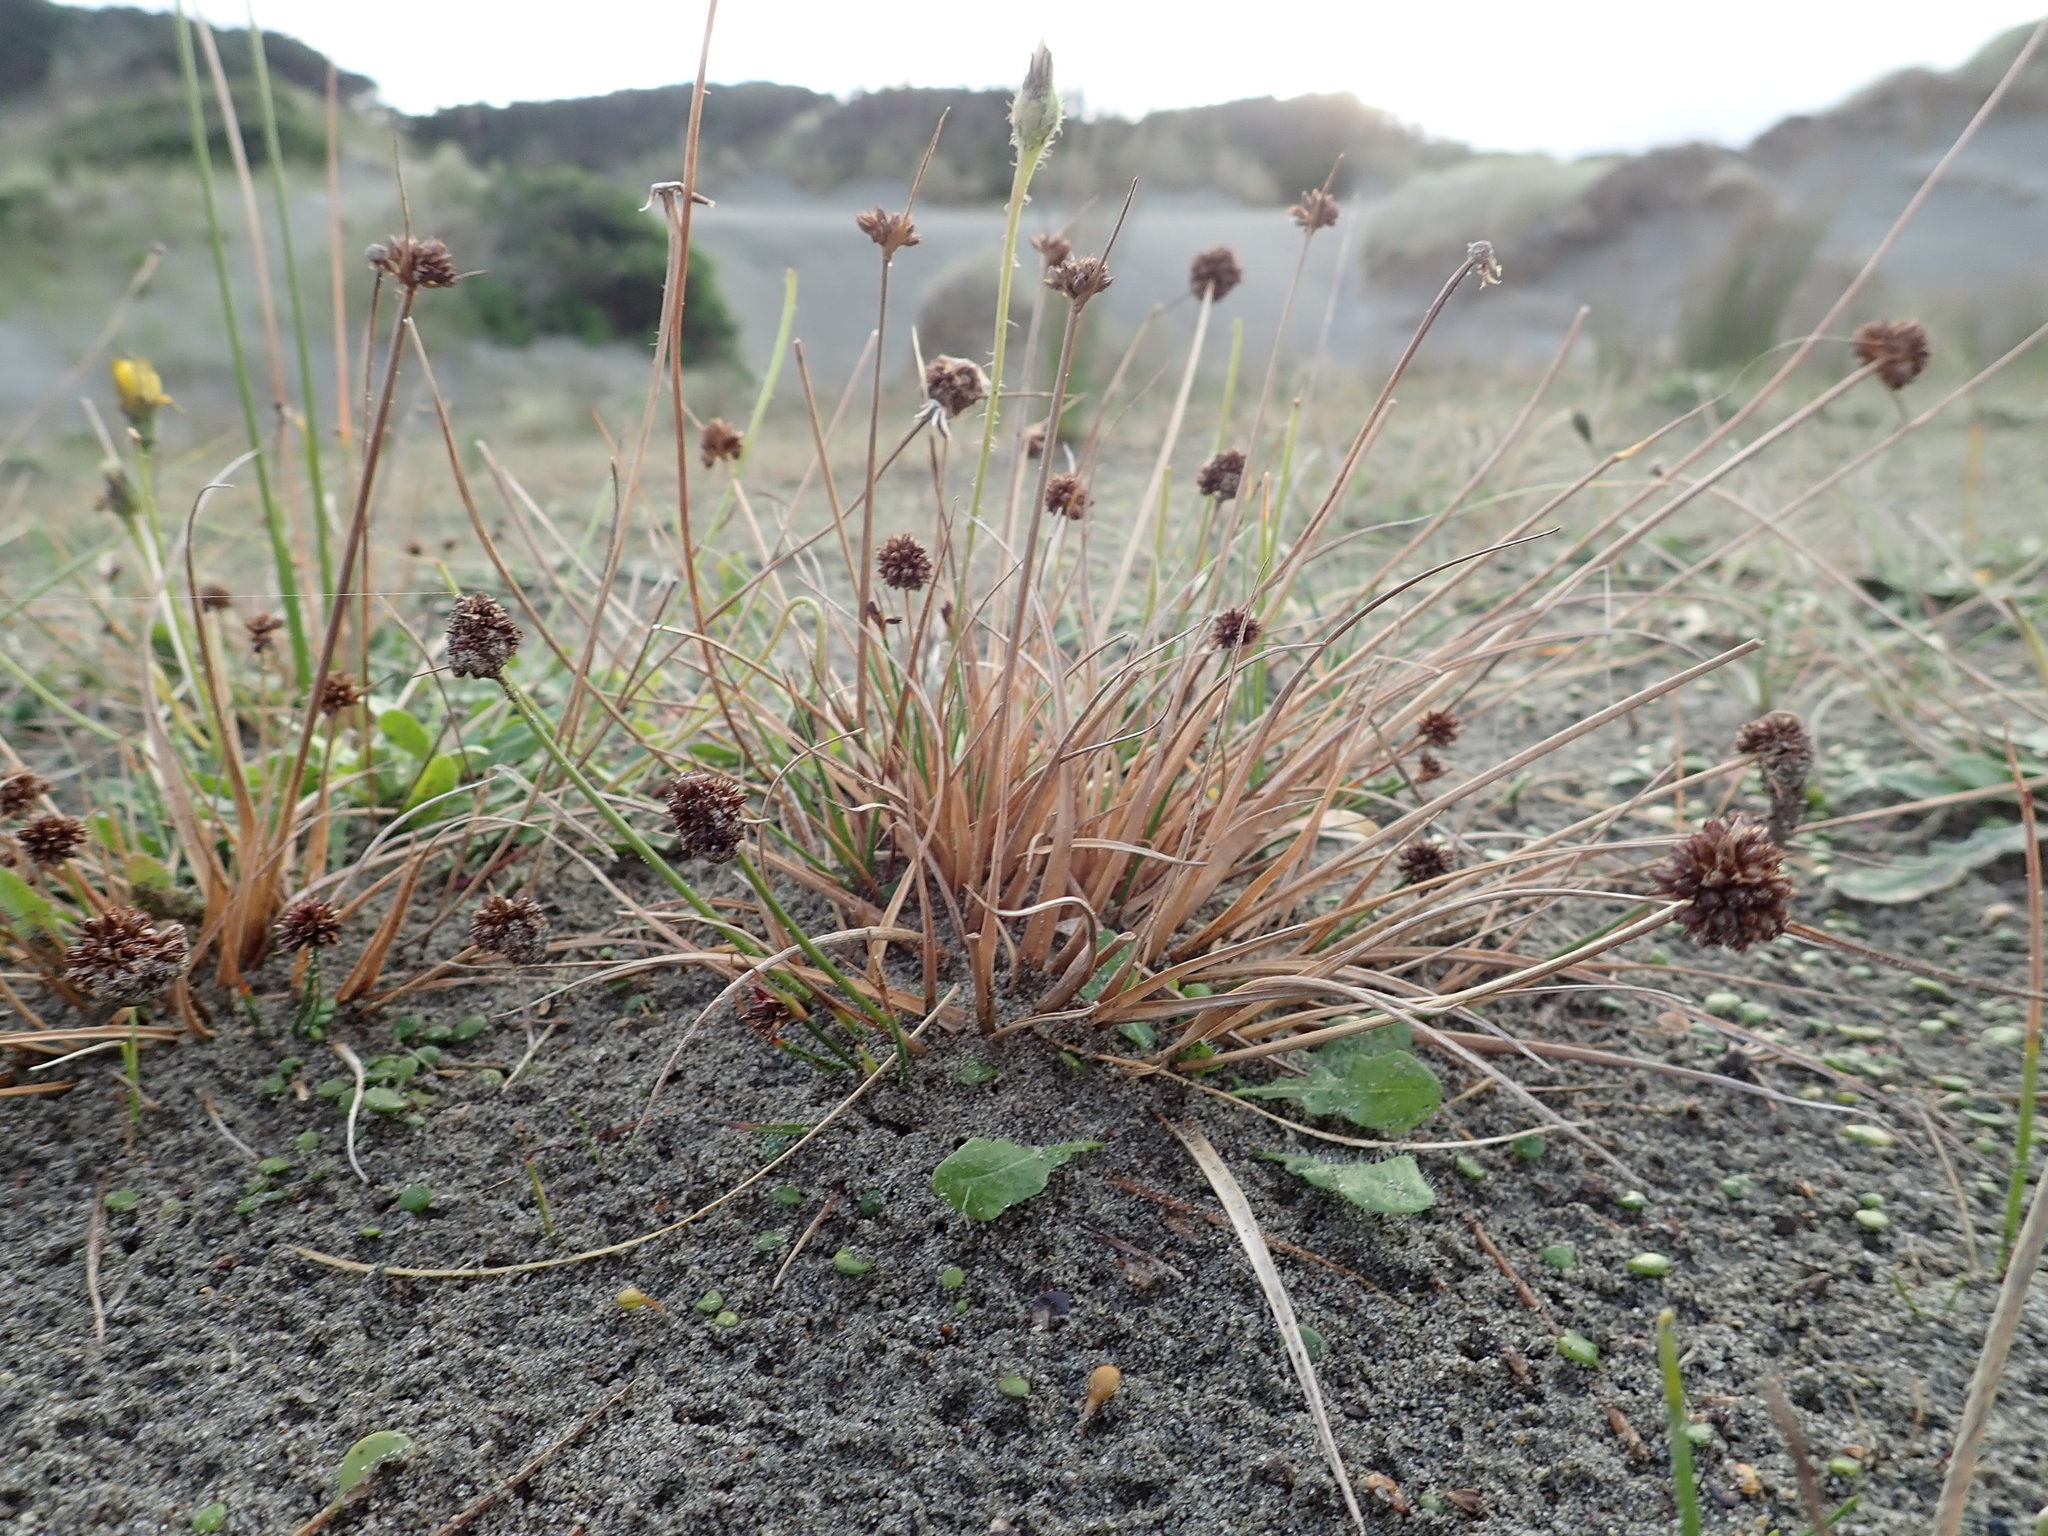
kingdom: Plantae
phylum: Tracheophyta
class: Liliopsida
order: Poales
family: Juncaceae
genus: Juncus
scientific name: Juncus caespiticius
